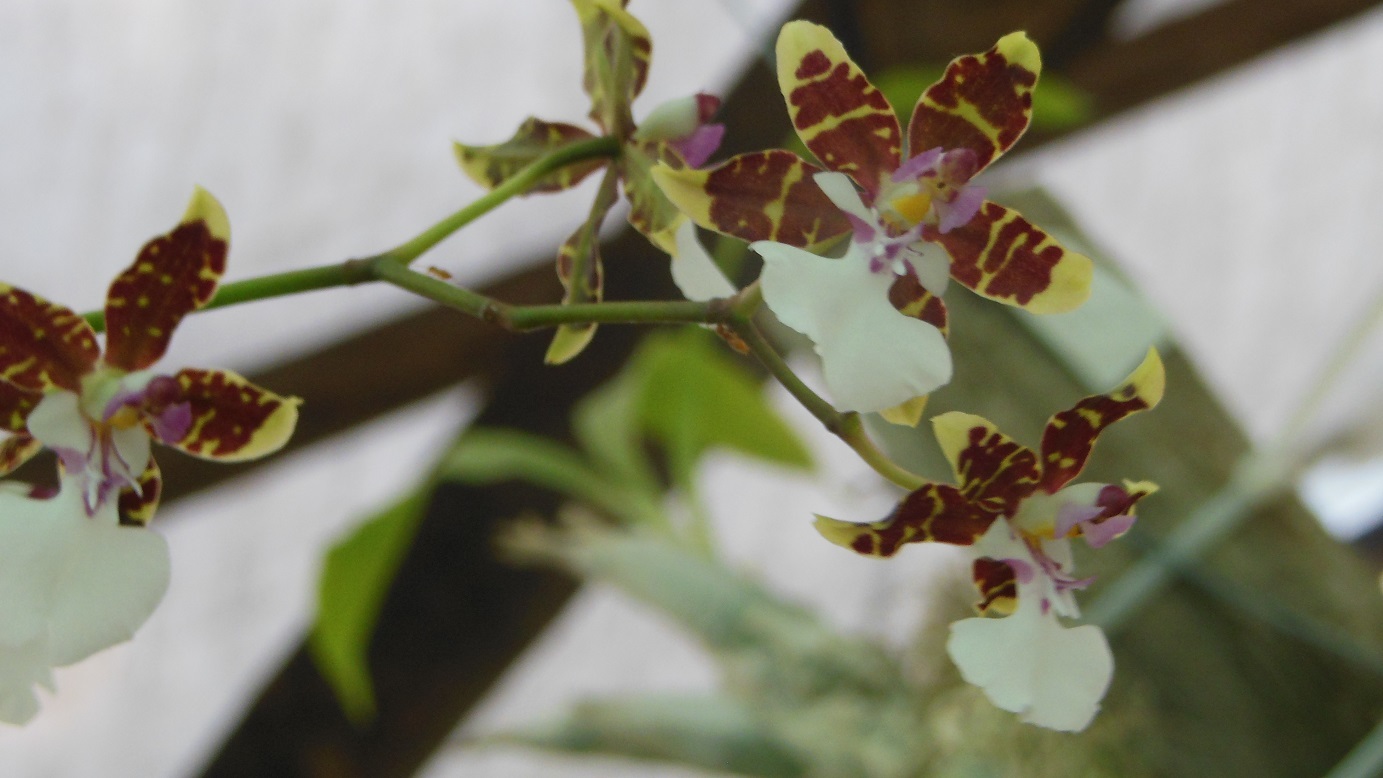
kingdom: Plantae
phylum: Tracheophyta
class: Liliopsida
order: Asparagales
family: Orchidaceae
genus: Oncidium
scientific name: Oncidium leucochilum
